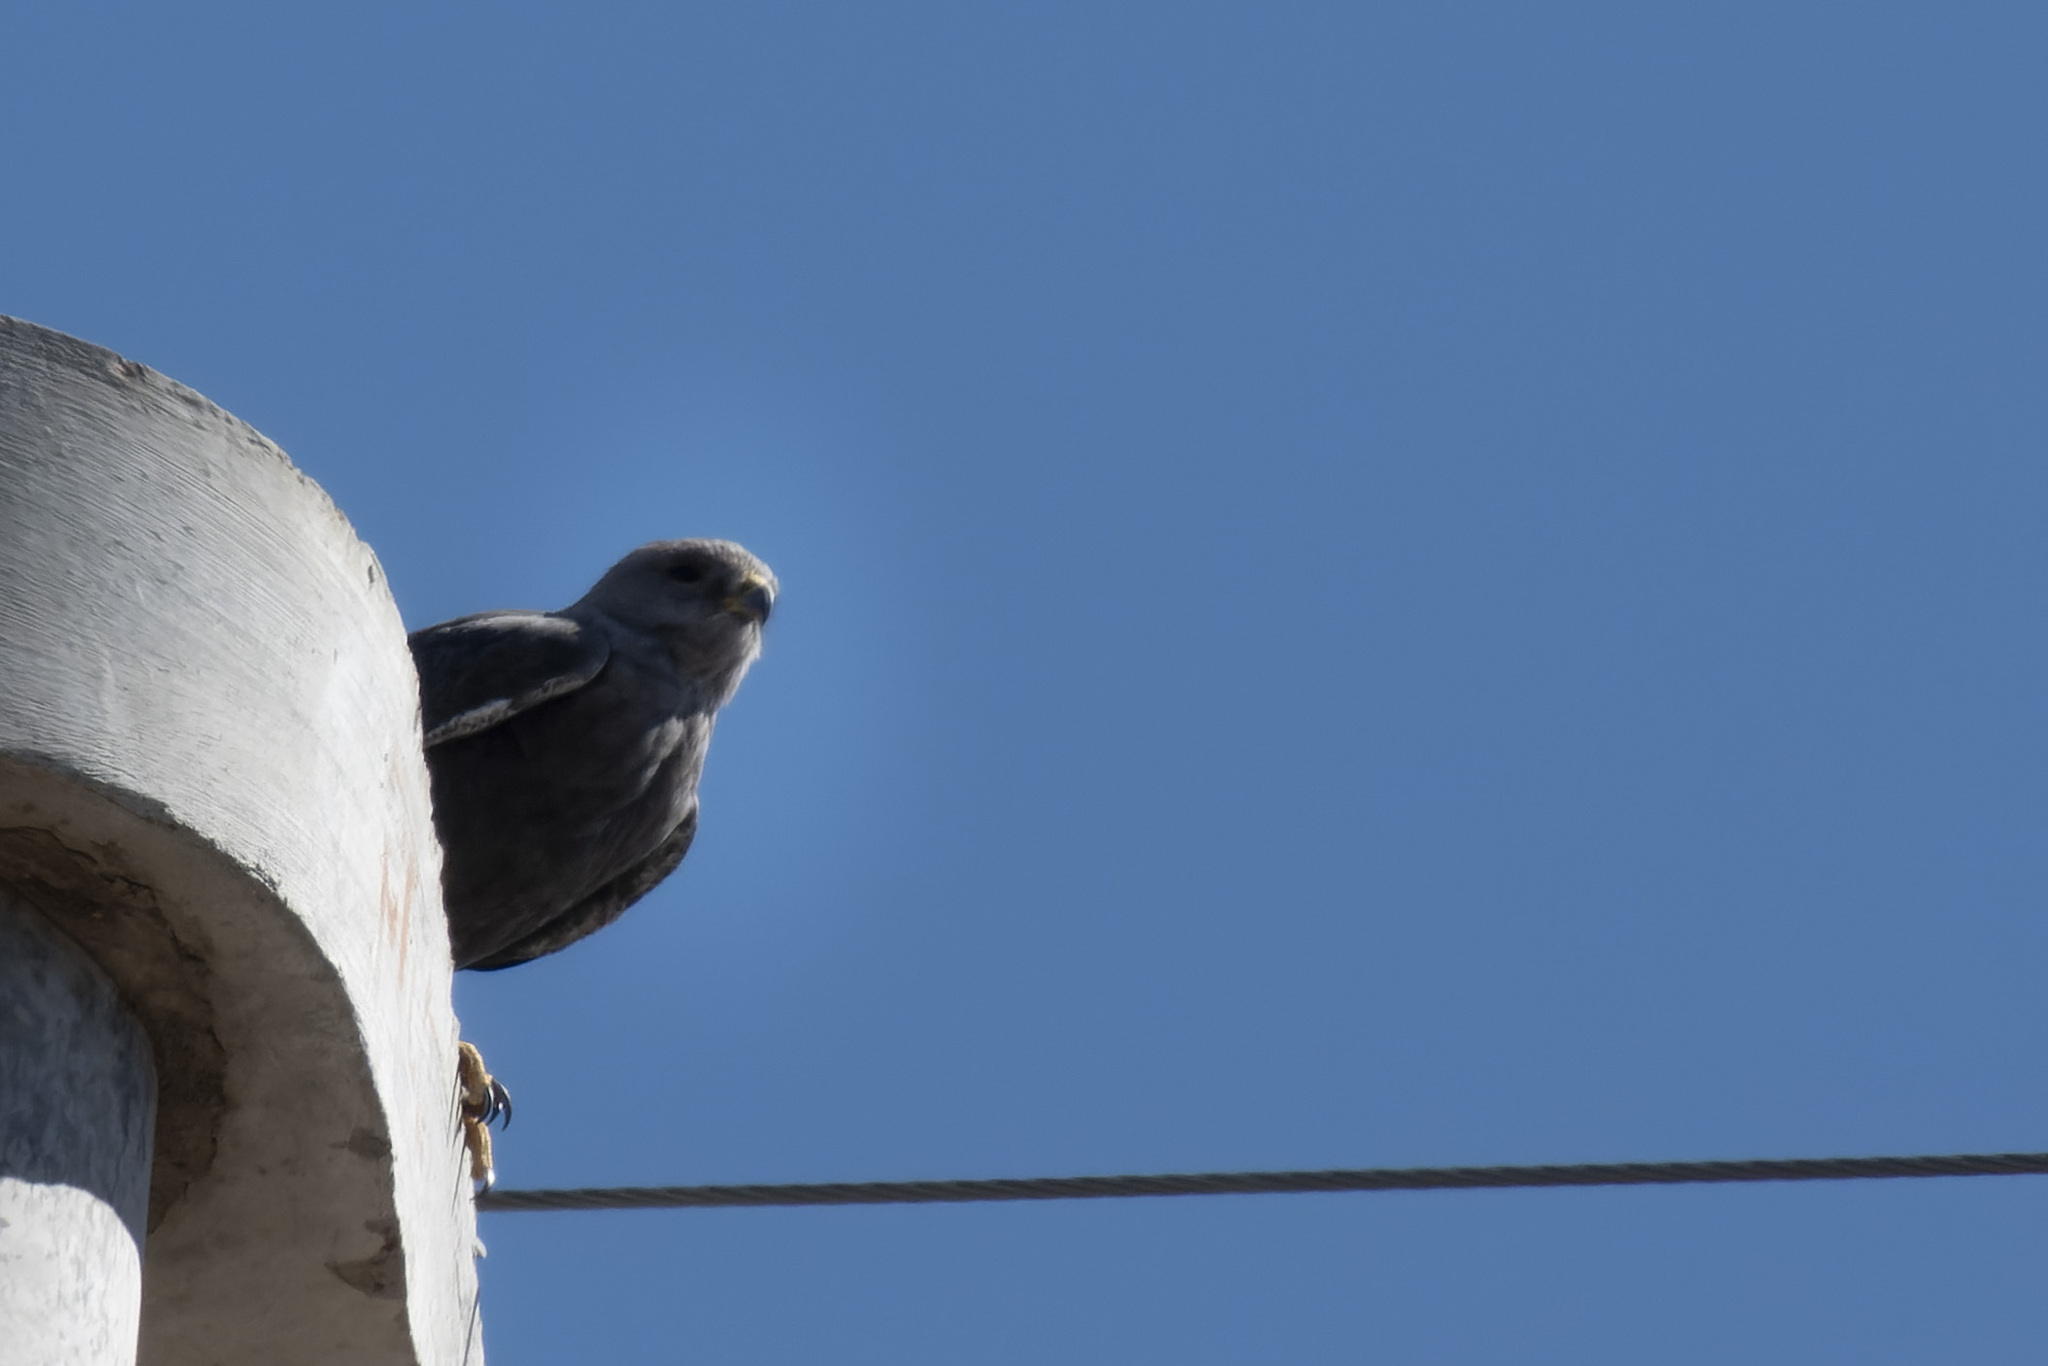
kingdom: Animalia
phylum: Chordata
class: Aves
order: Accipitriformes
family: Accipitridae
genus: Buteo
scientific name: Buteo polyosoma
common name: Variable hawk
